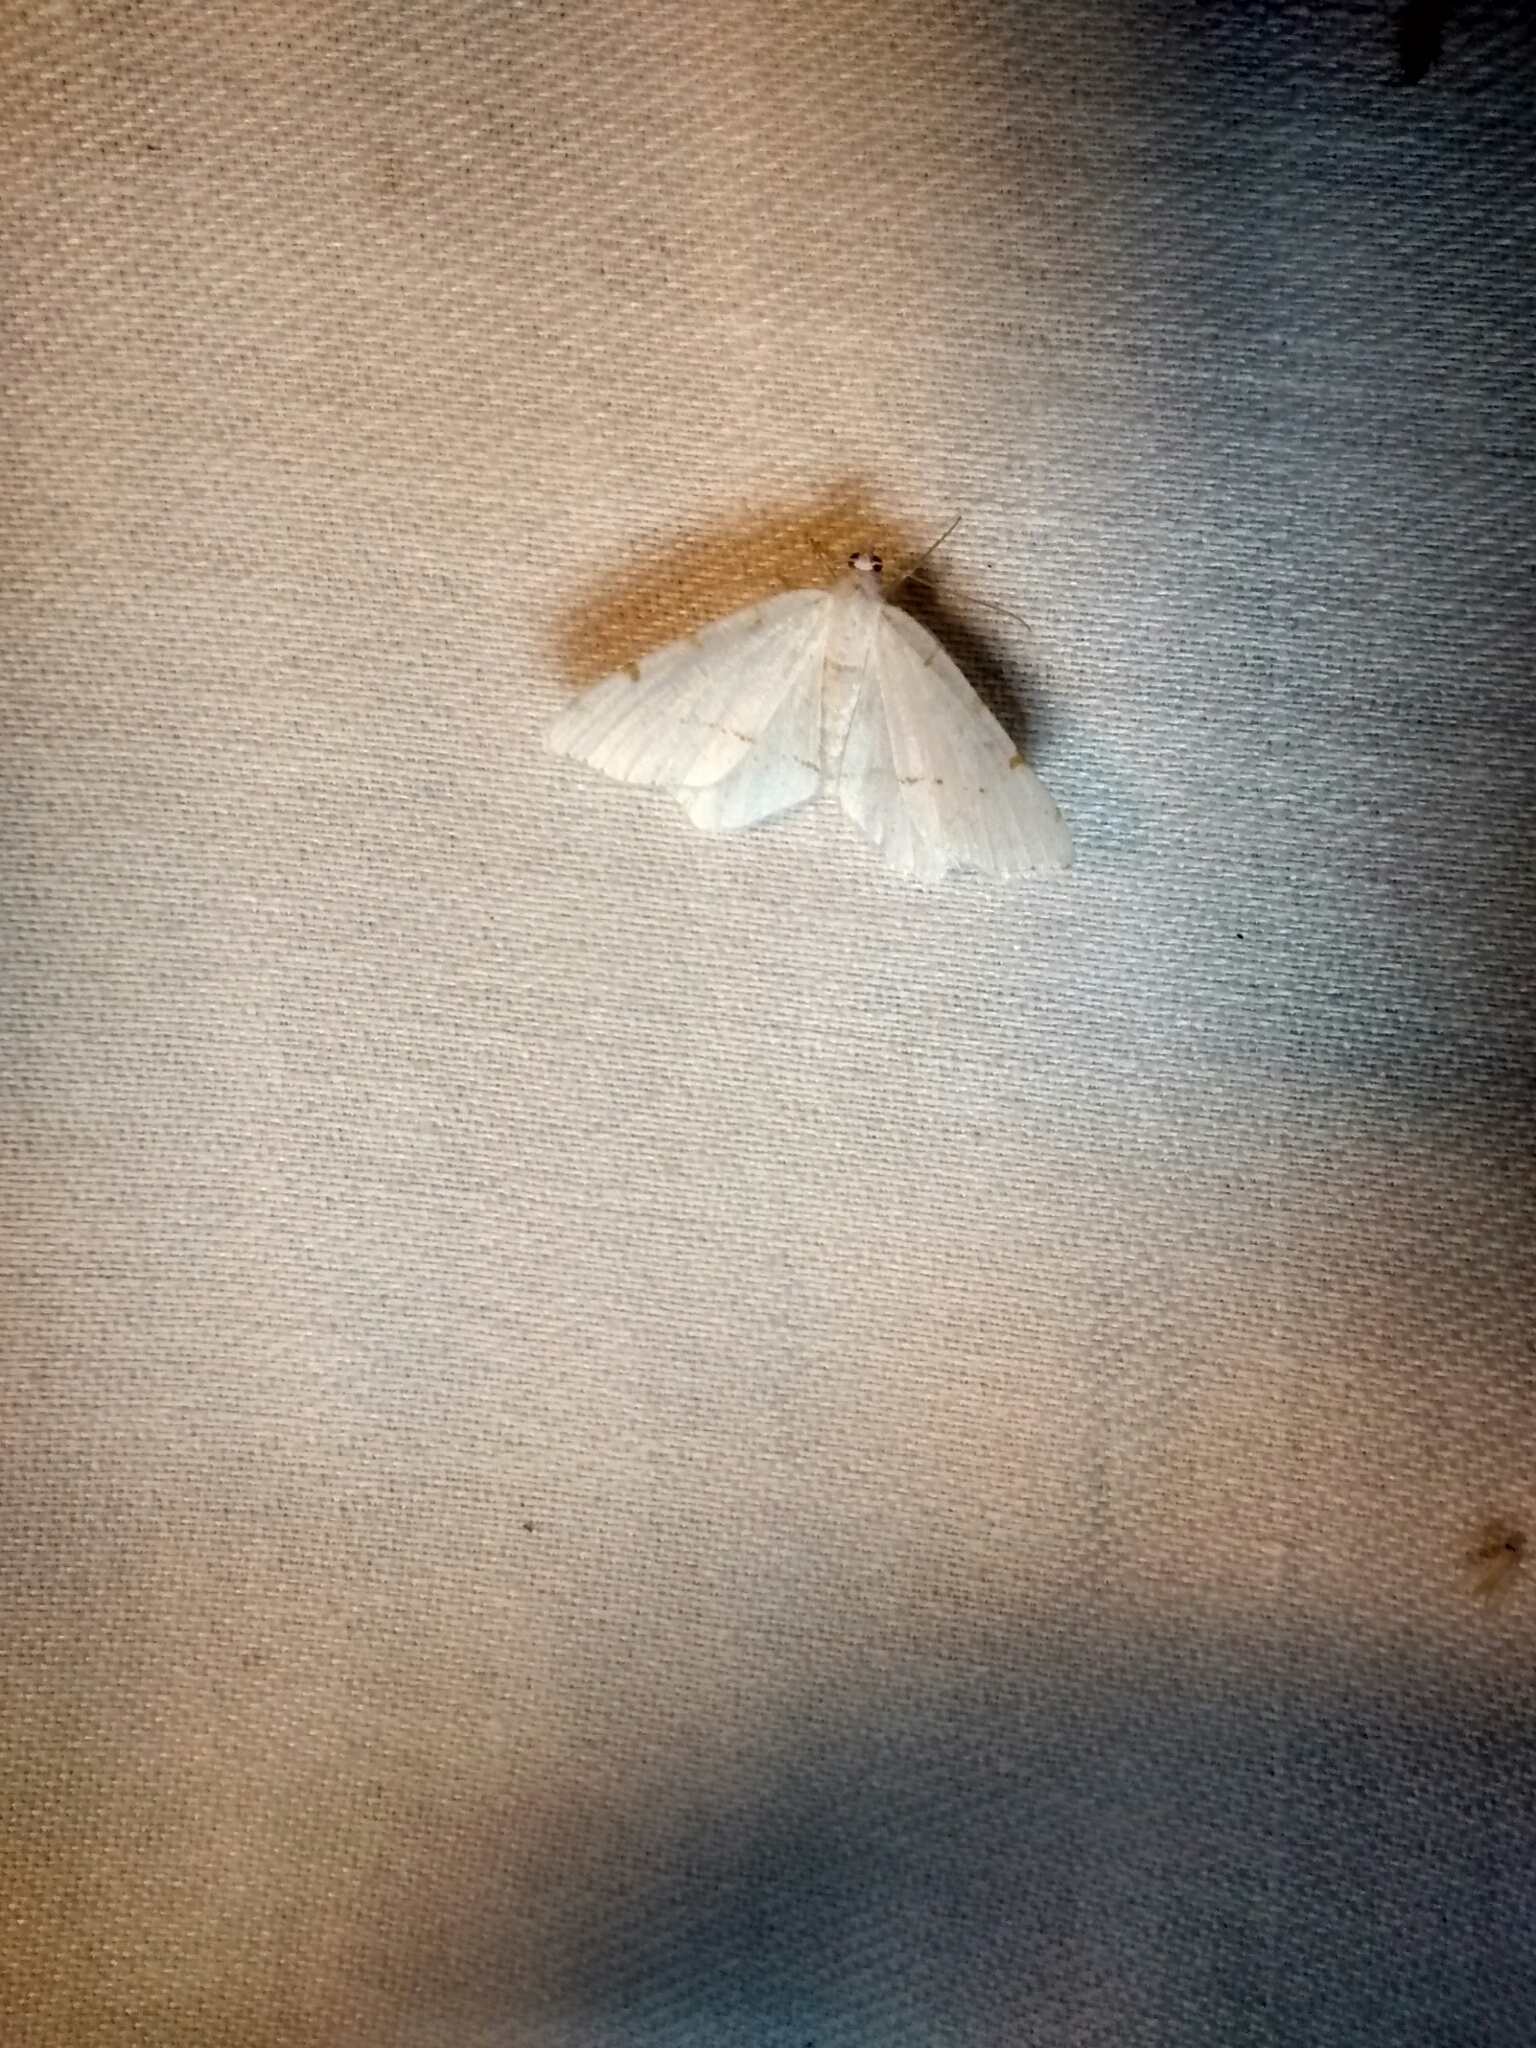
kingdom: Animalia
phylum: Arthropoda
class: Insecta
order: Lepidoptera
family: Geometridae
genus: Macaria
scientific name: Macaria pustularia
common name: Lesser maple spanworm moth
